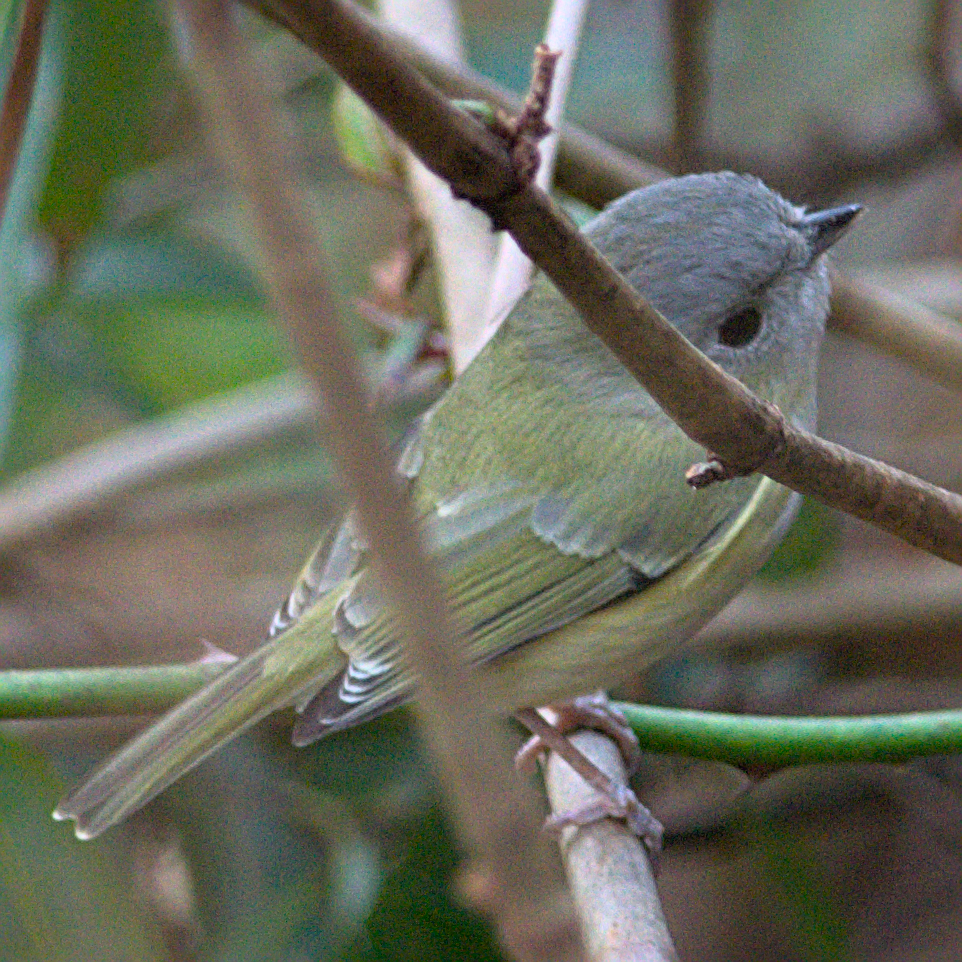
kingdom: Animalia
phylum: Chordata
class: Aves
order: Passeriformes
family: Vireonidae
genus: Pteruthius
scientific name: Pteruthius xanthochlorus
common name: Green shrike-babbler
